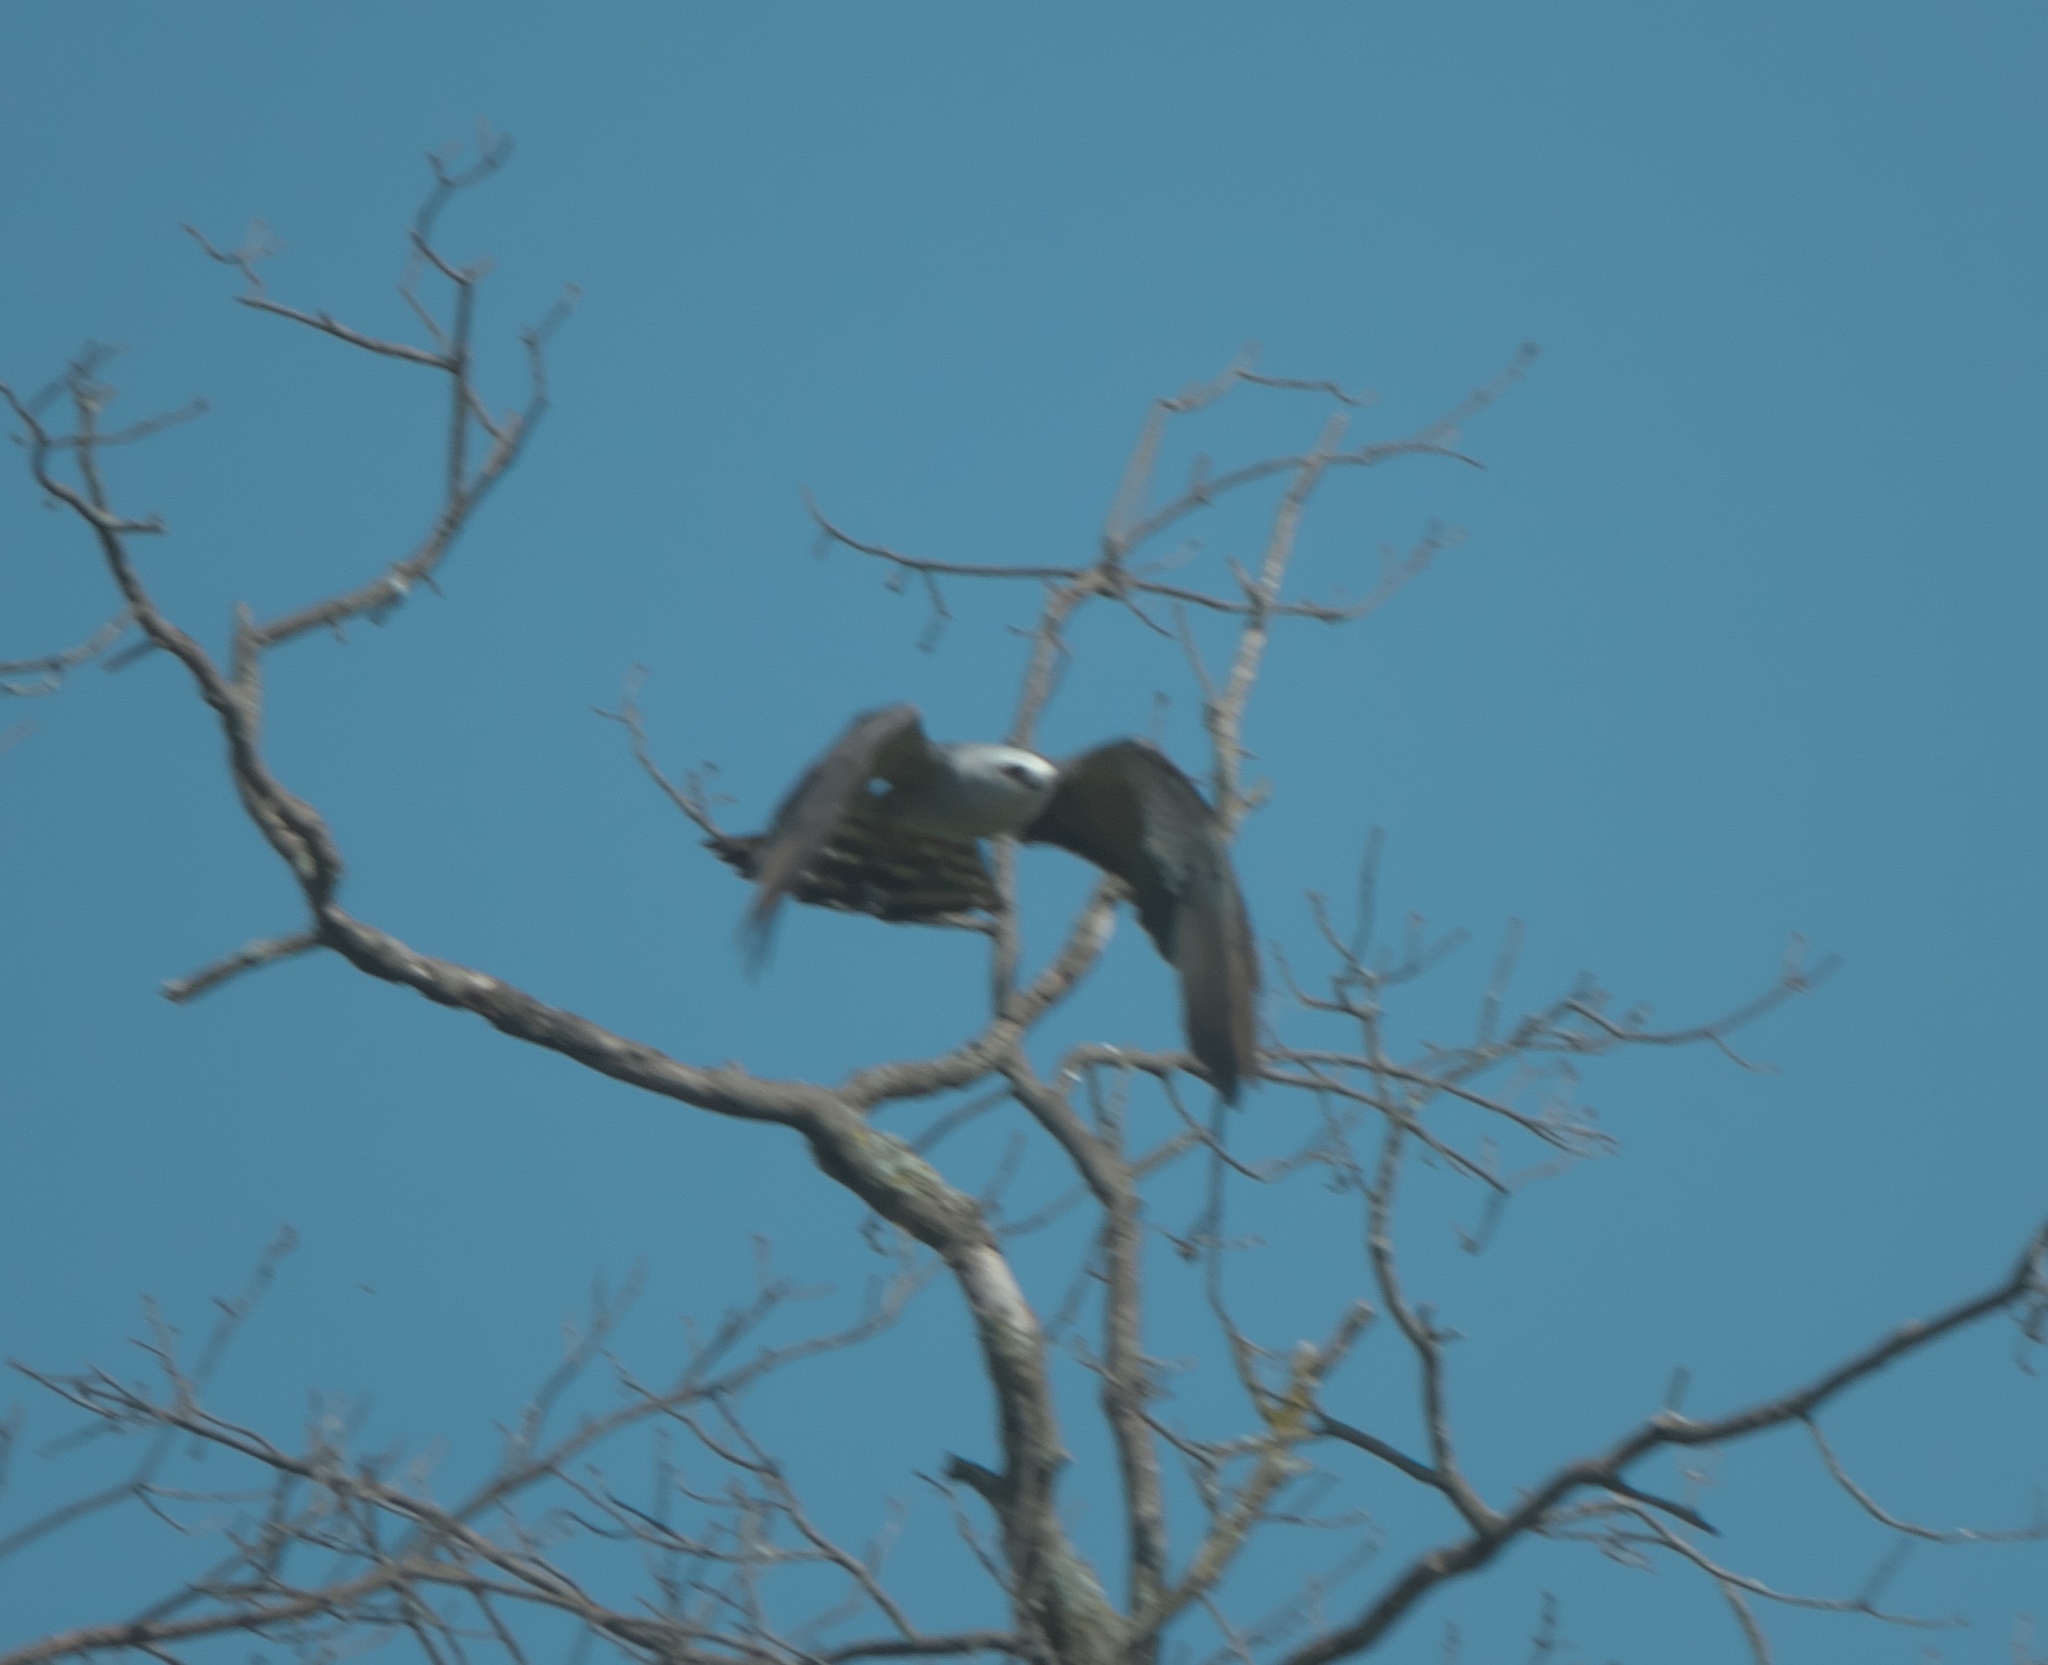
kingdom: Animalia
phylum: Chordata
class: Aves
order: Accipitriformes
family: Accipitridae
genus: Ictinia
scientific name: Ictinia mississippiensis
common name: Mississippi kite
